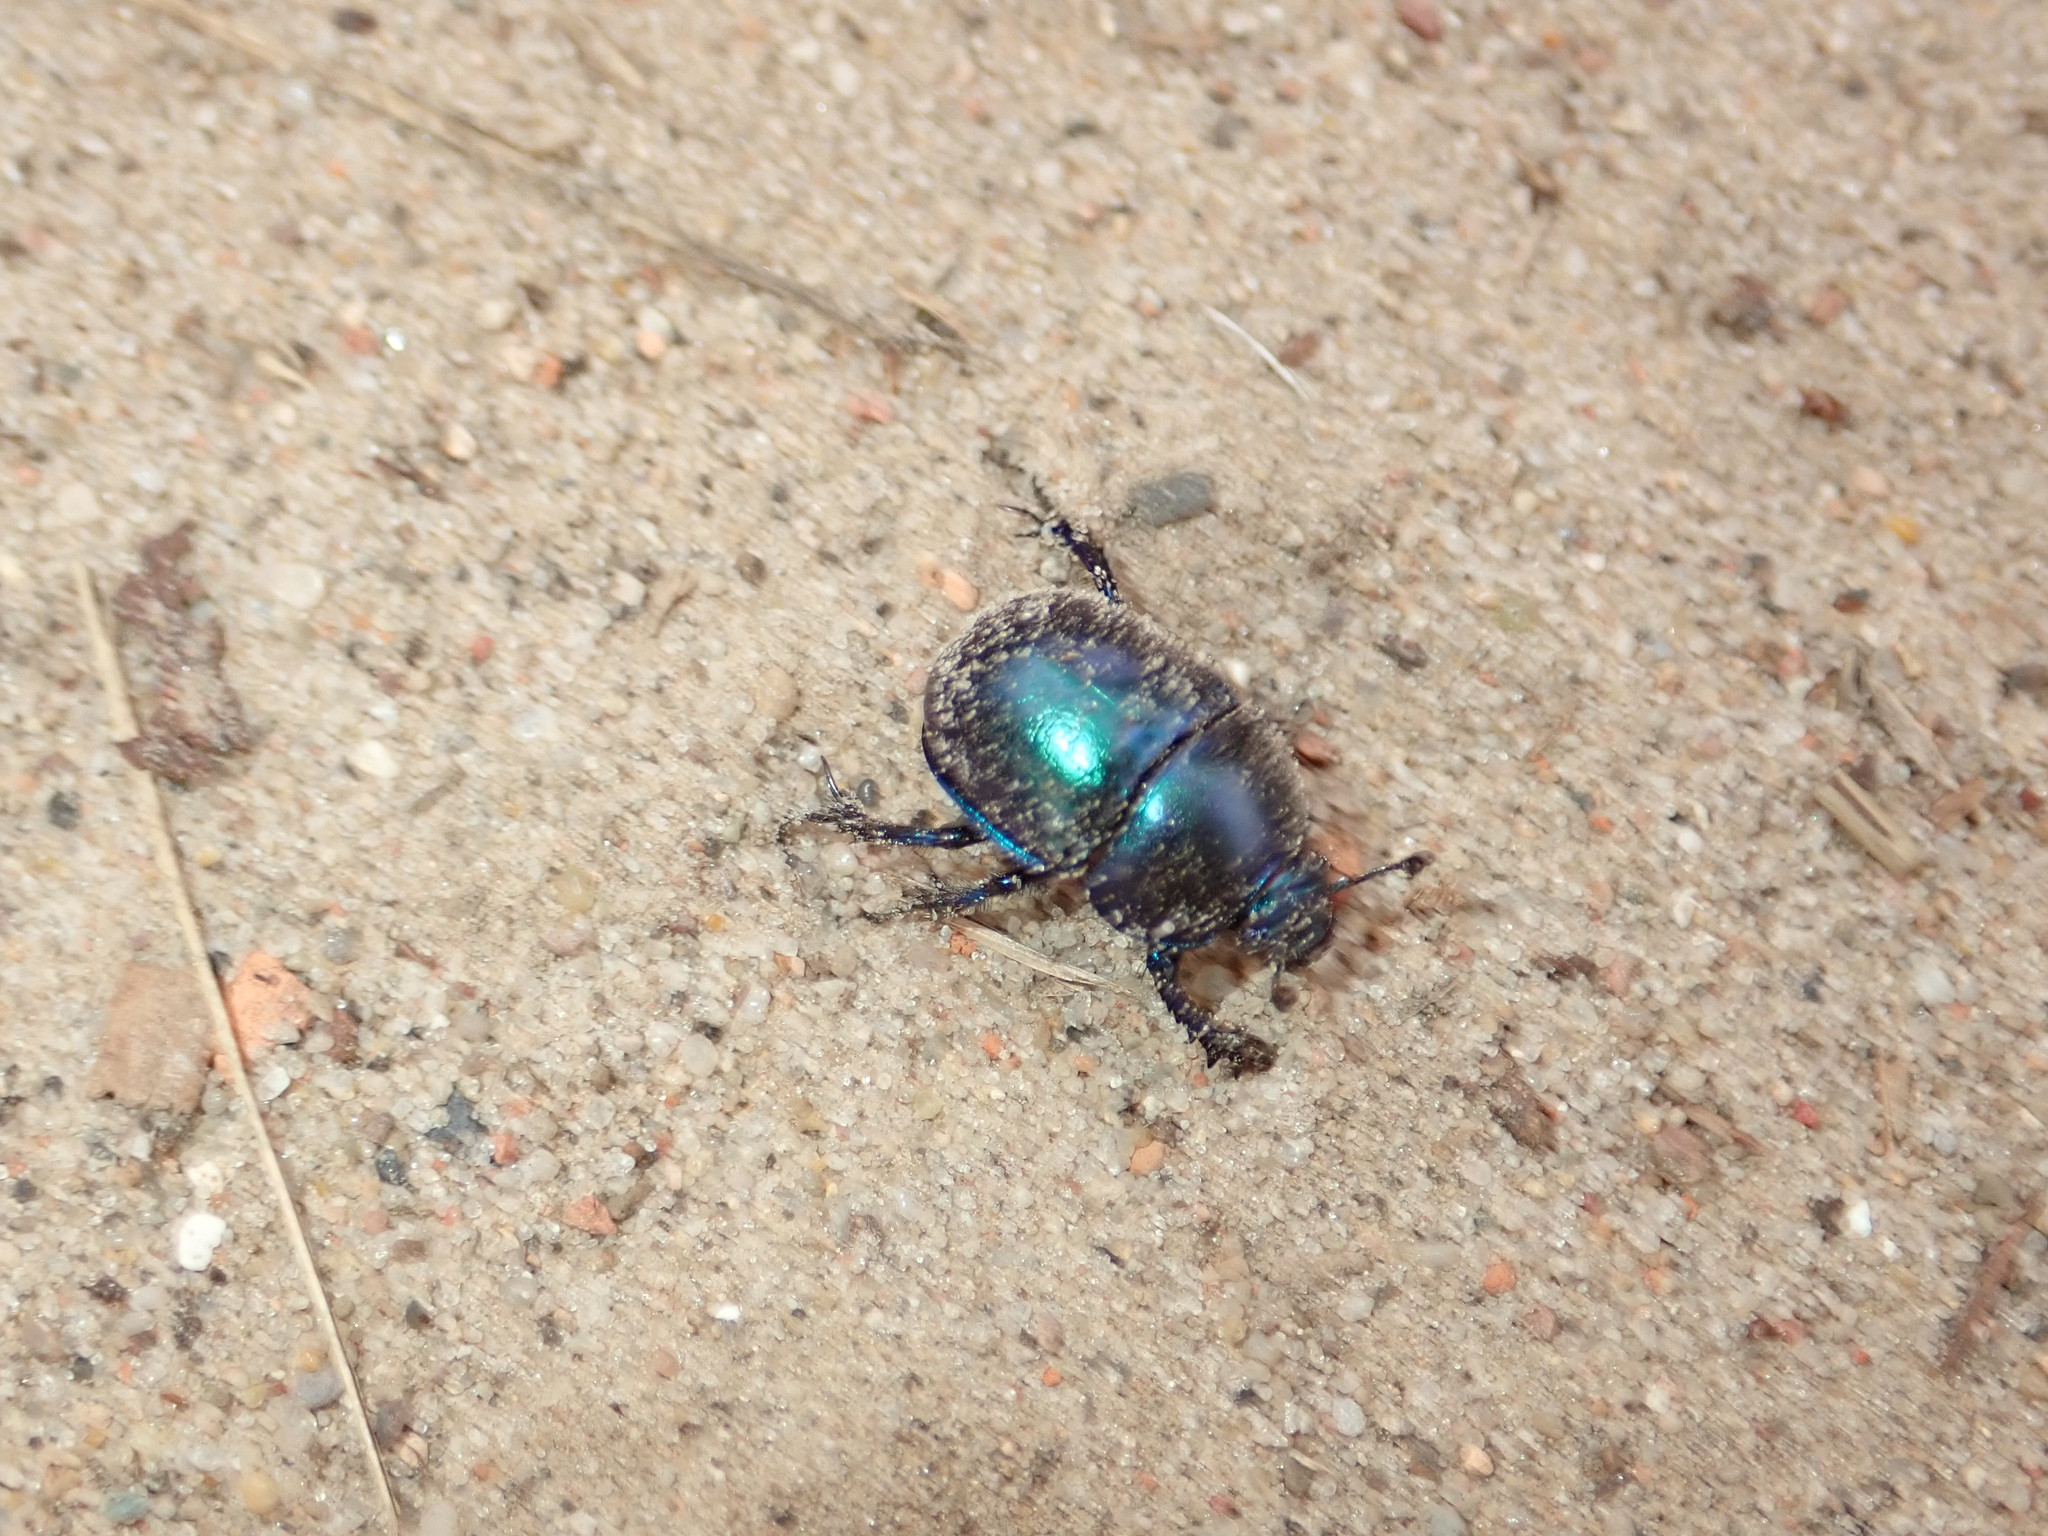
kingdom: Animalia
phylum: Arthropoda
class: Insecta
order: Coleoptera
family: Geotrupidae
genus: Trypocopris
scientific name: Trypocopris vernalis
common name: Spring dumbledor
